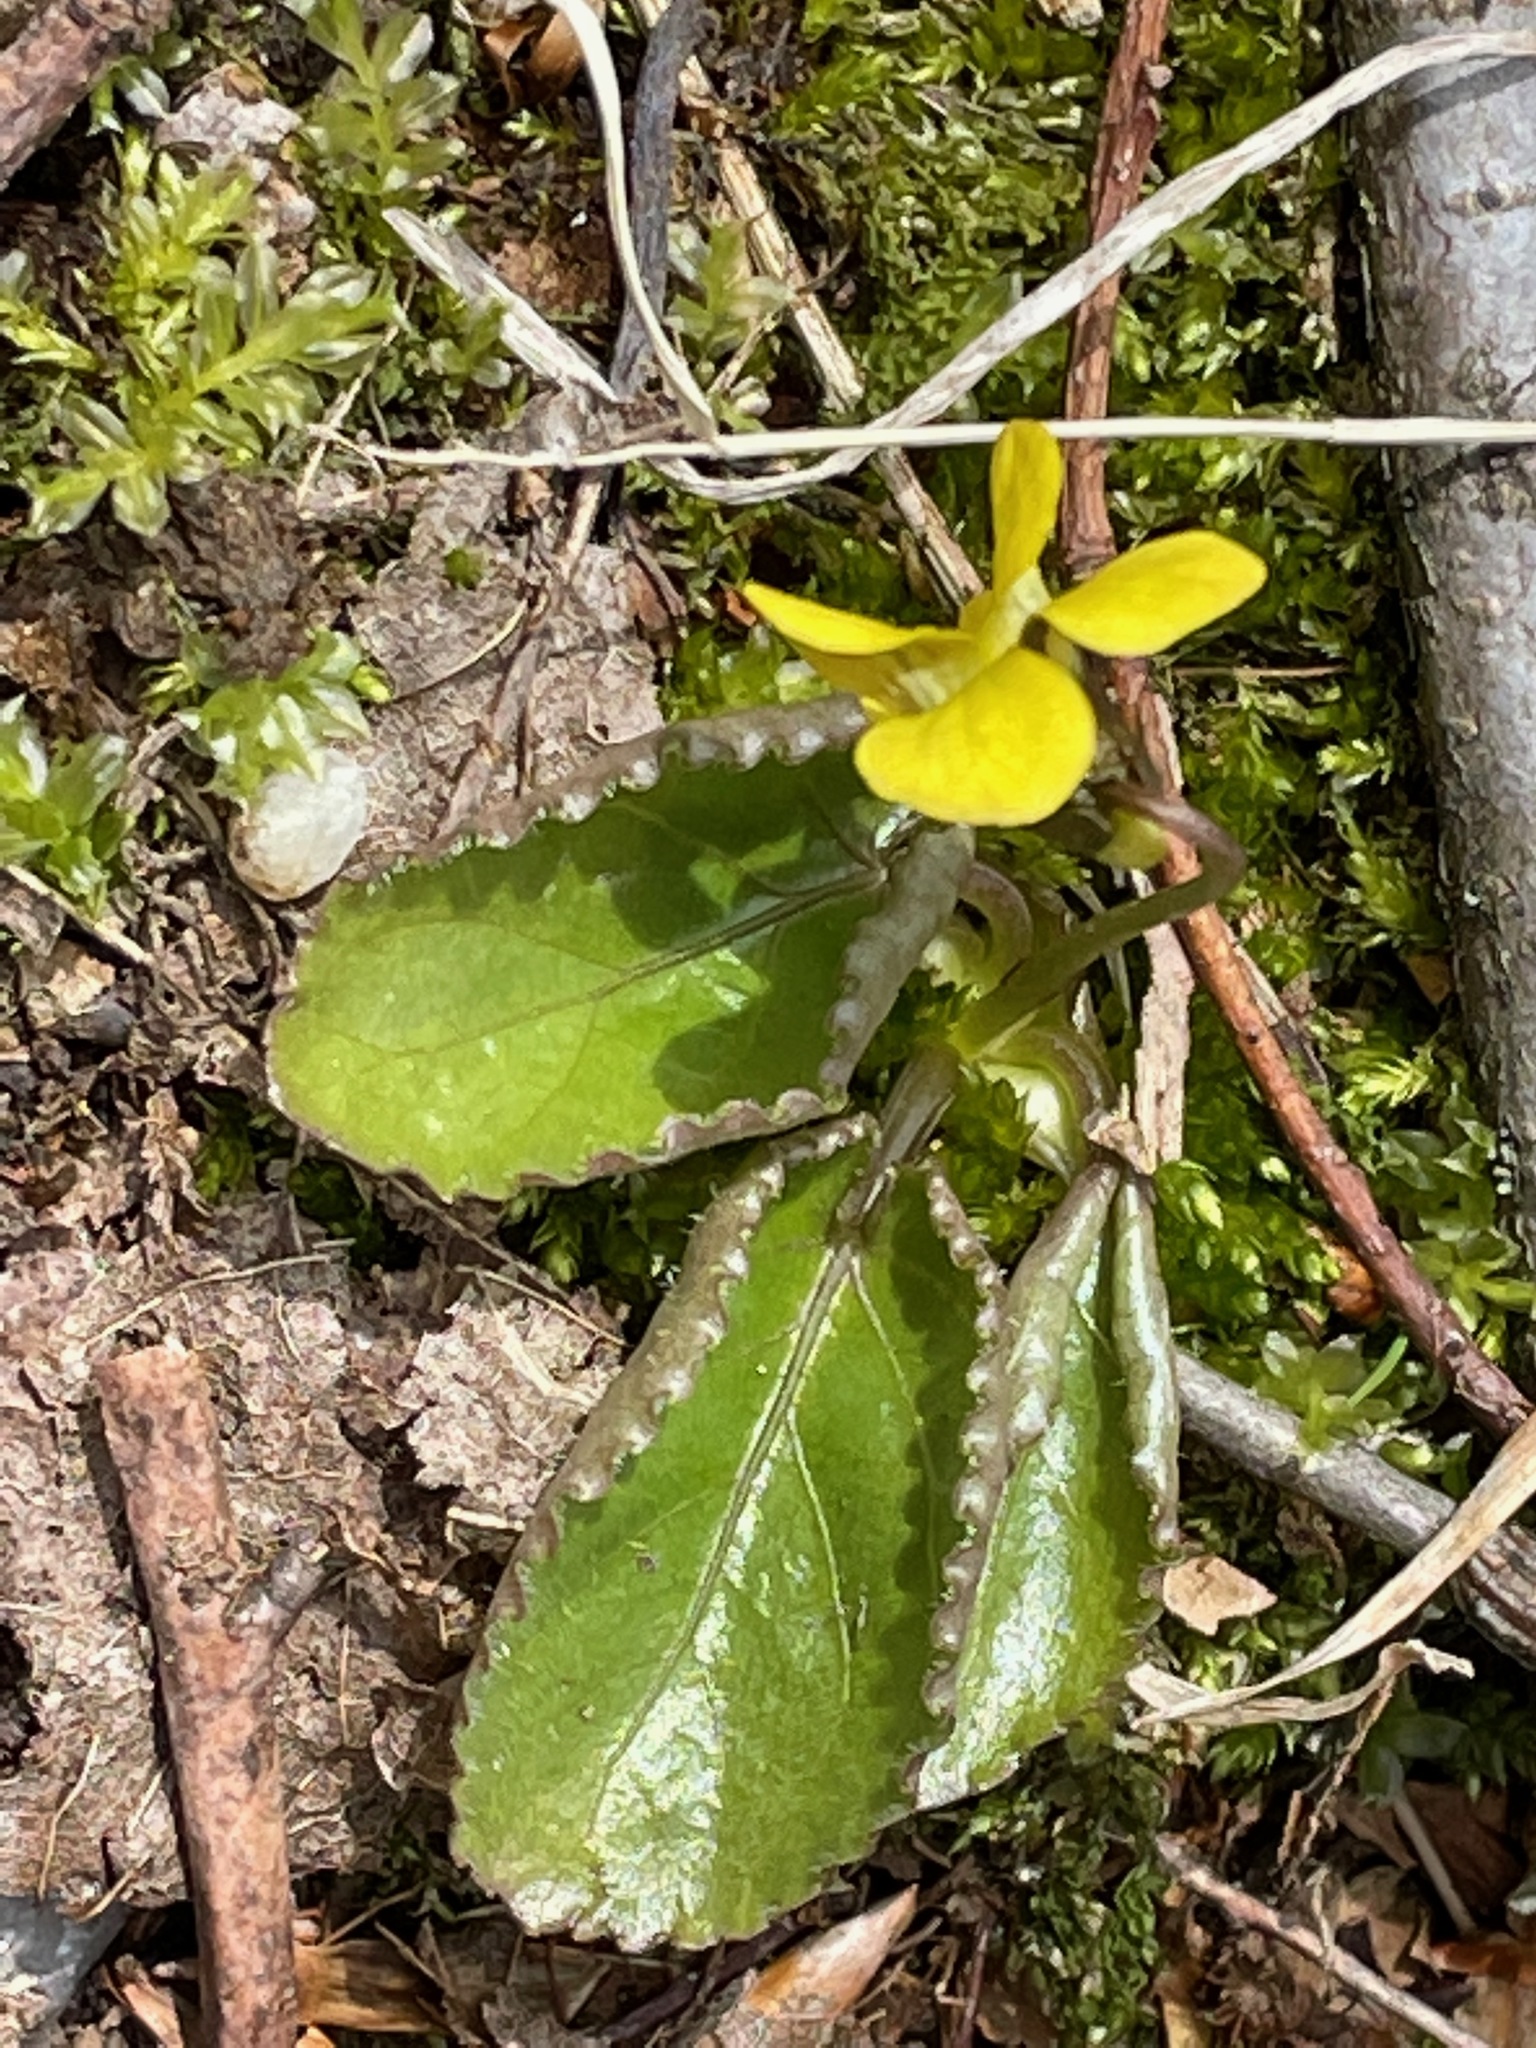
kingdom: Plantae
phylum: Tracheophyta
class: Magnoliopsida
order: Malpighiales
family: Violaceae
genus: Viola
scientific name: Viola rotundifolia
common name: Early yellow violet
